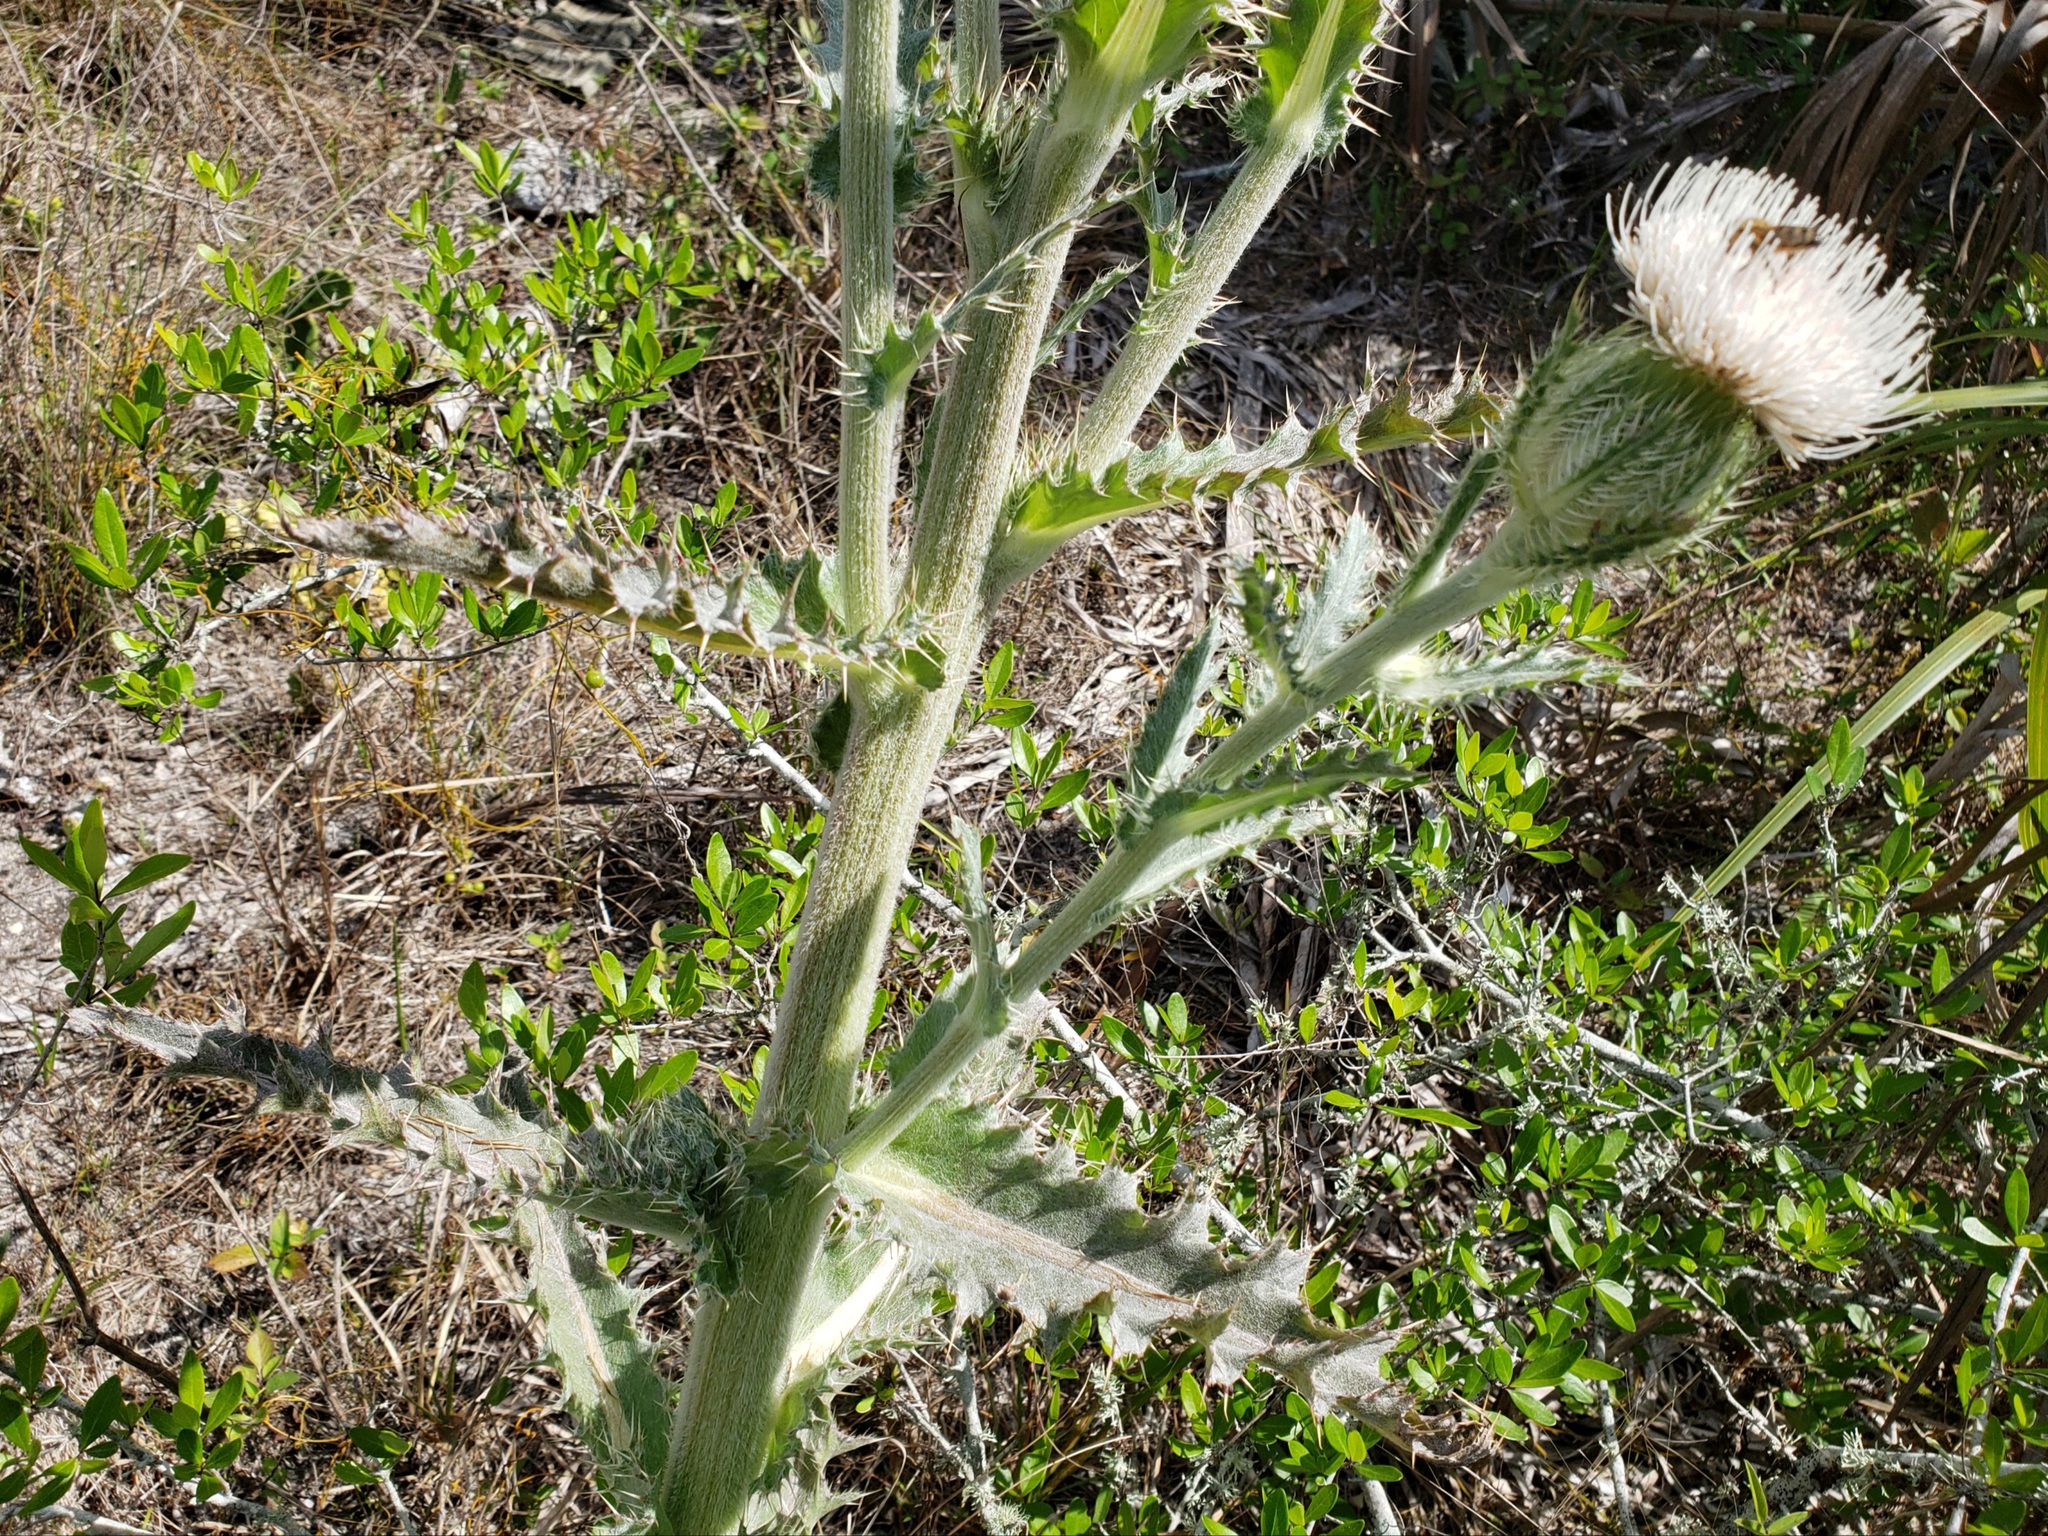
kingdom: Plantae
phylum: Tracheophyta
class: Magnoliopsida
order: Asterales
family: Asteraceae
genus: Cirsium
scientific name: Cirsium horridulum
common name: Bristly thistle
